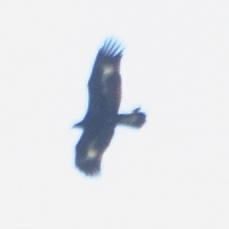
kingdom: Animalia
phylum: Chordata
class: Aves
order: Accipitriformes
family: Accipitridae
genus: Aquila
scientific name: Aquila chrysaetos
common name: Golden eagle
